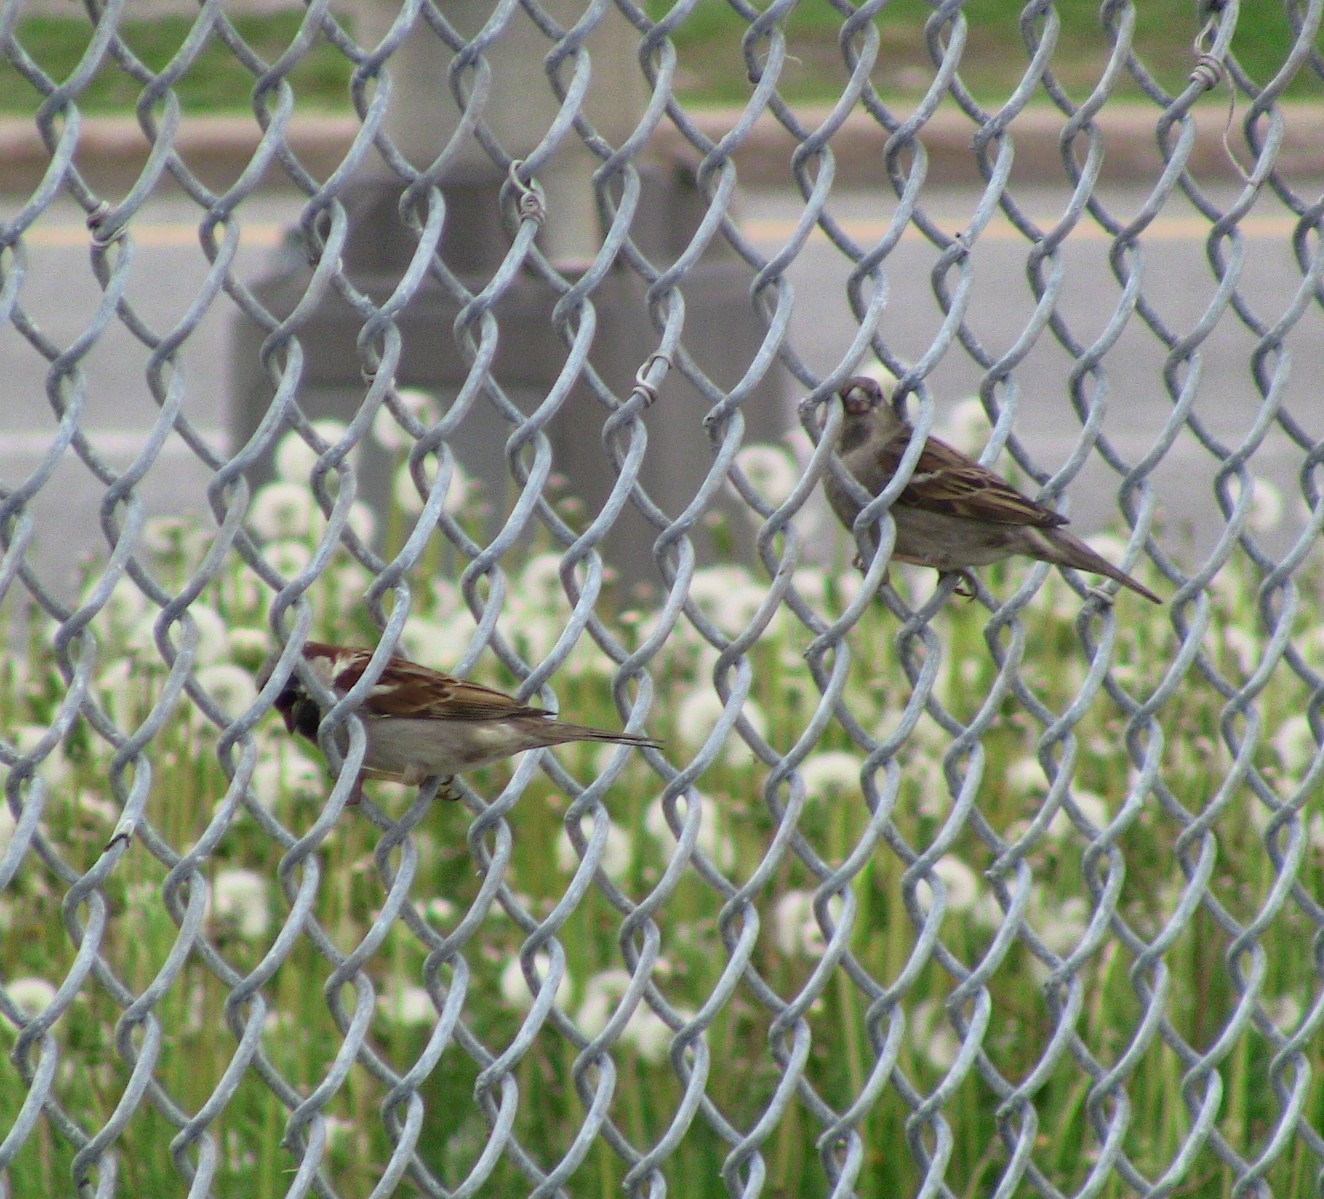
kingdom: Animalia
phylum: Chordata
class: Aves
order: Passeriformes
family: Passeridae
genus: Passer
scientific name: Passer domesticus
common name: House sparrow
